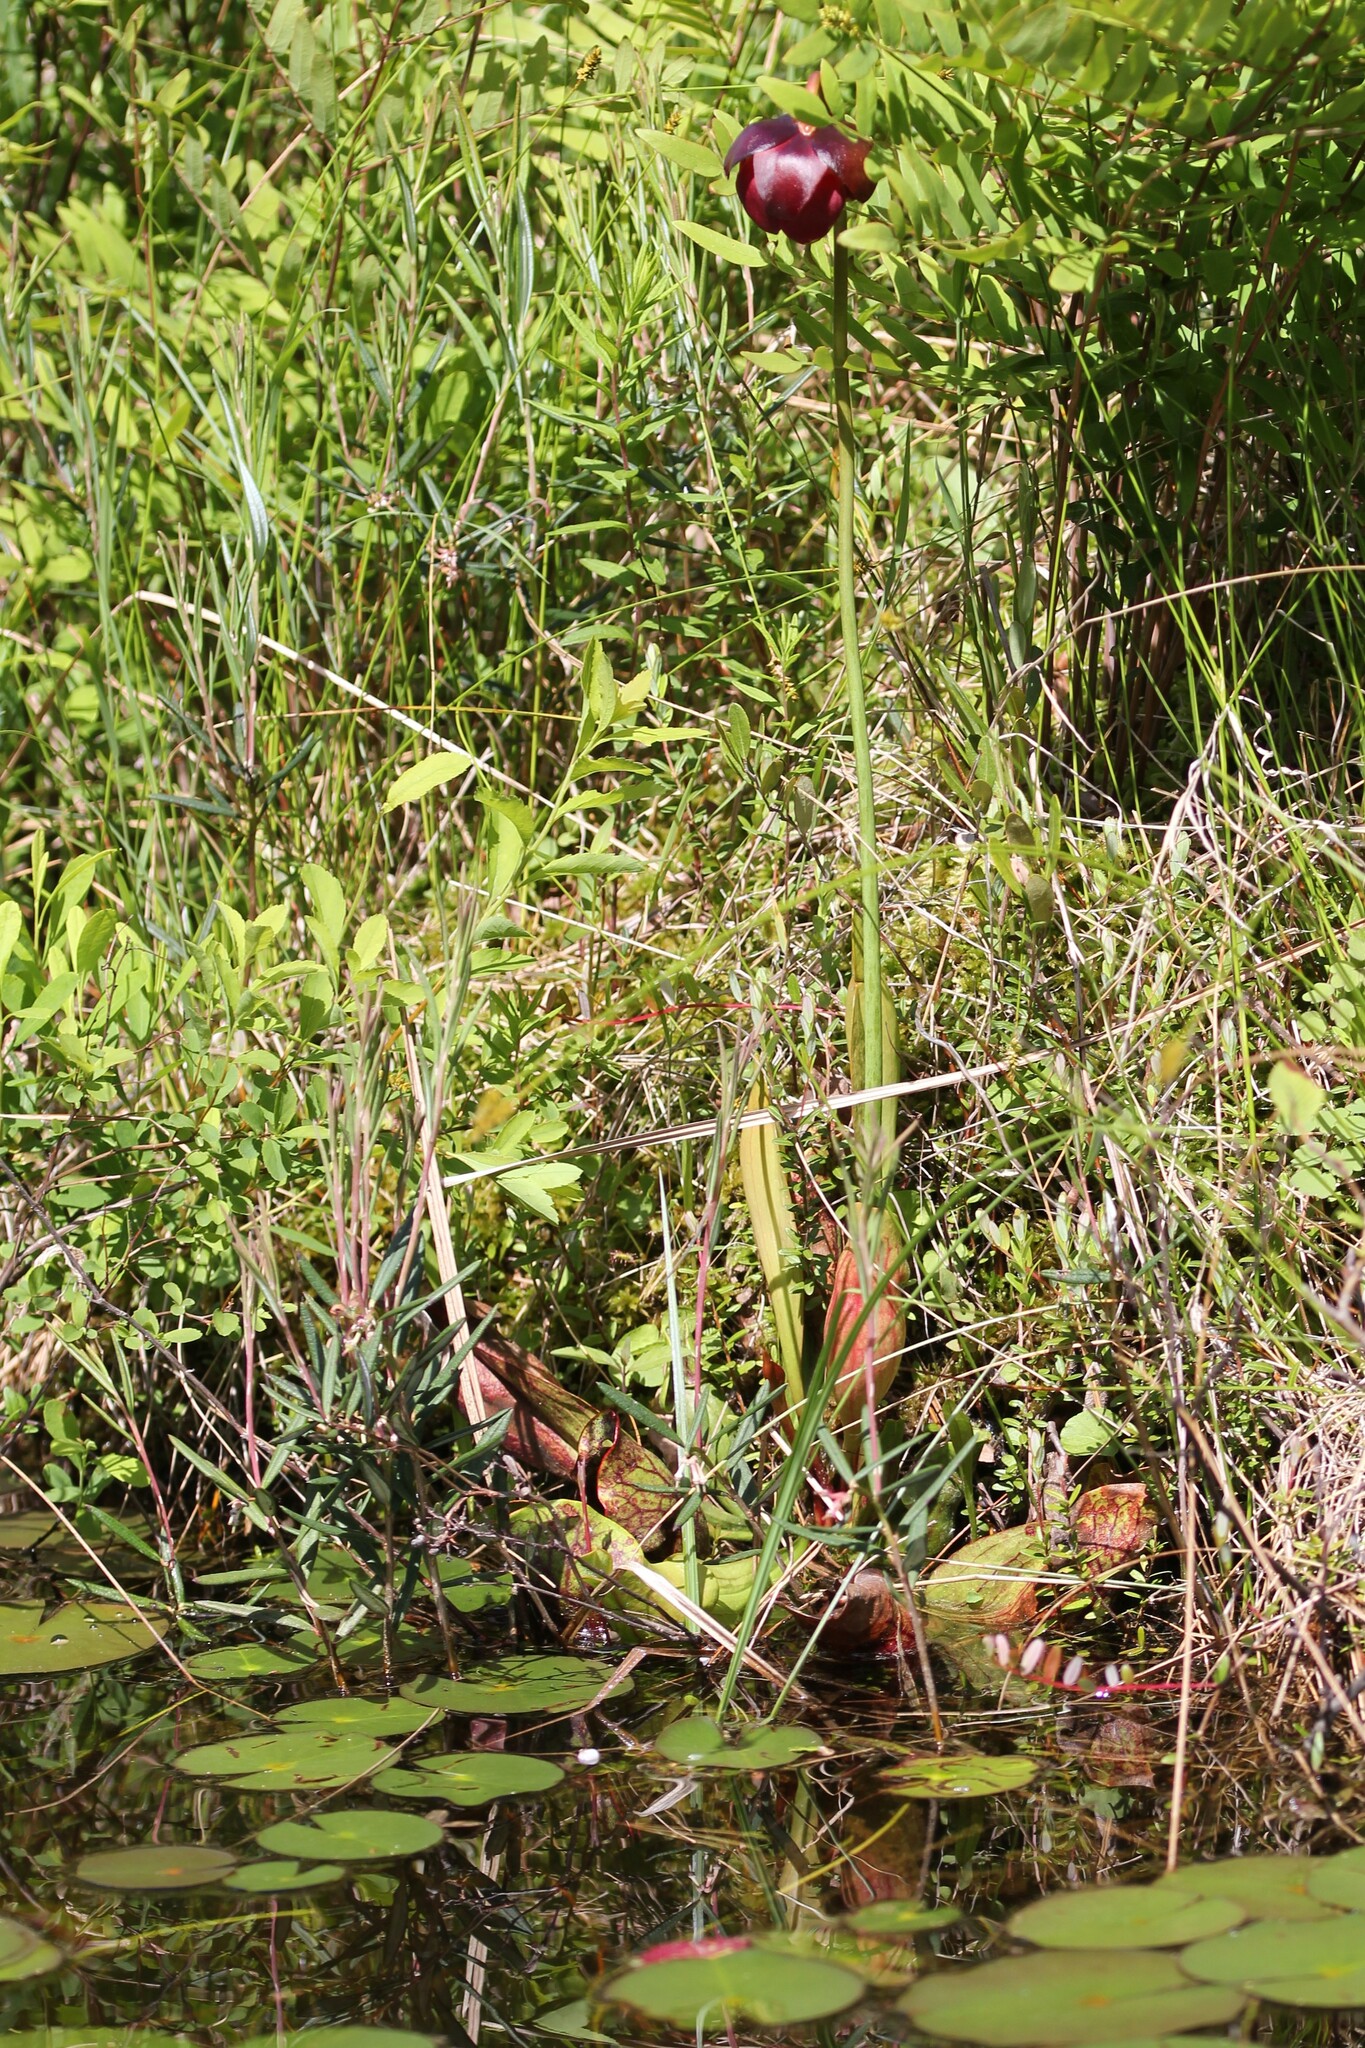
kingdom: Plantae
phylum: Tracheophyta
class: Magnoliopsida
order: Ericales
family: Sarraceniaceae
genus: Sarracenia
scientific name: Sarracenia purpurea
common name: Pitcherplant
